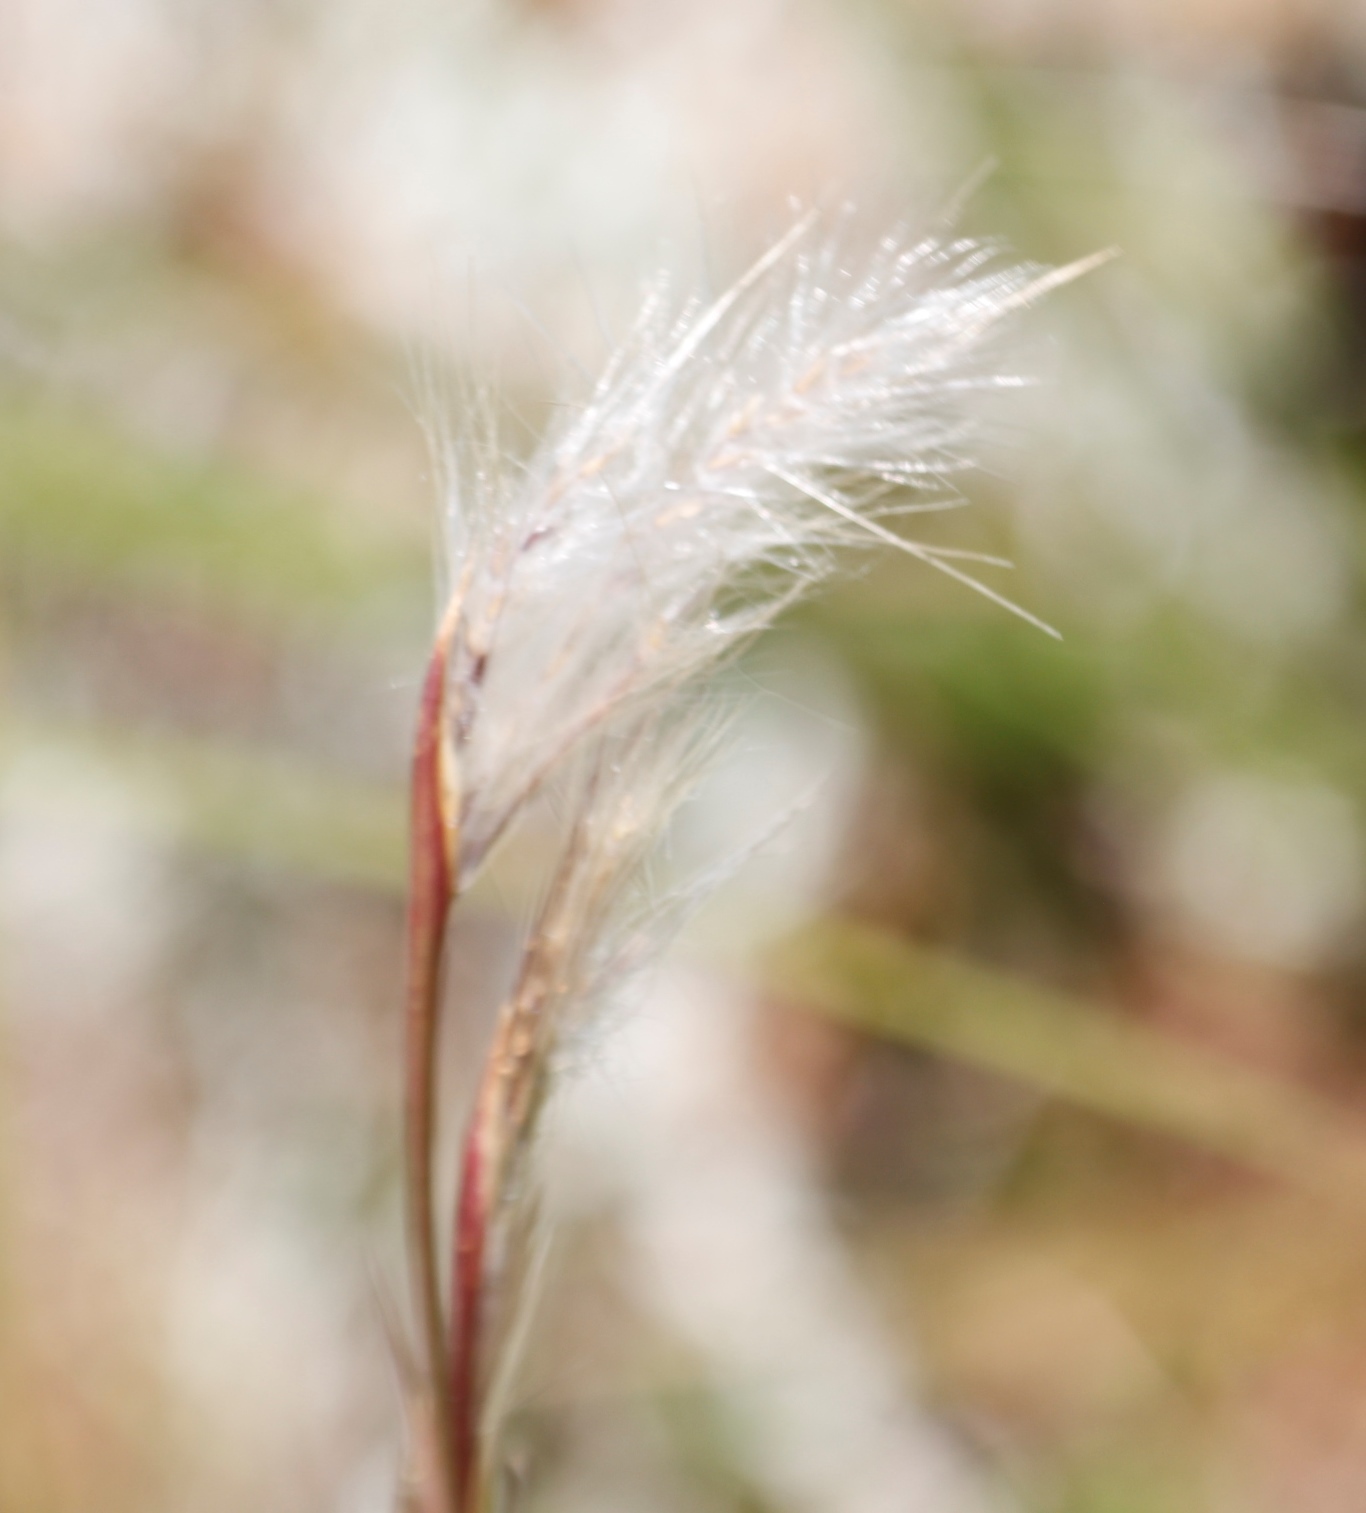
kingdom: Plantae
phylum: Tracheophyta
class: Liliopsida
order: Poales
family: Poaceae
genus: Andropogon
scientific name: Andropogon eucomus
